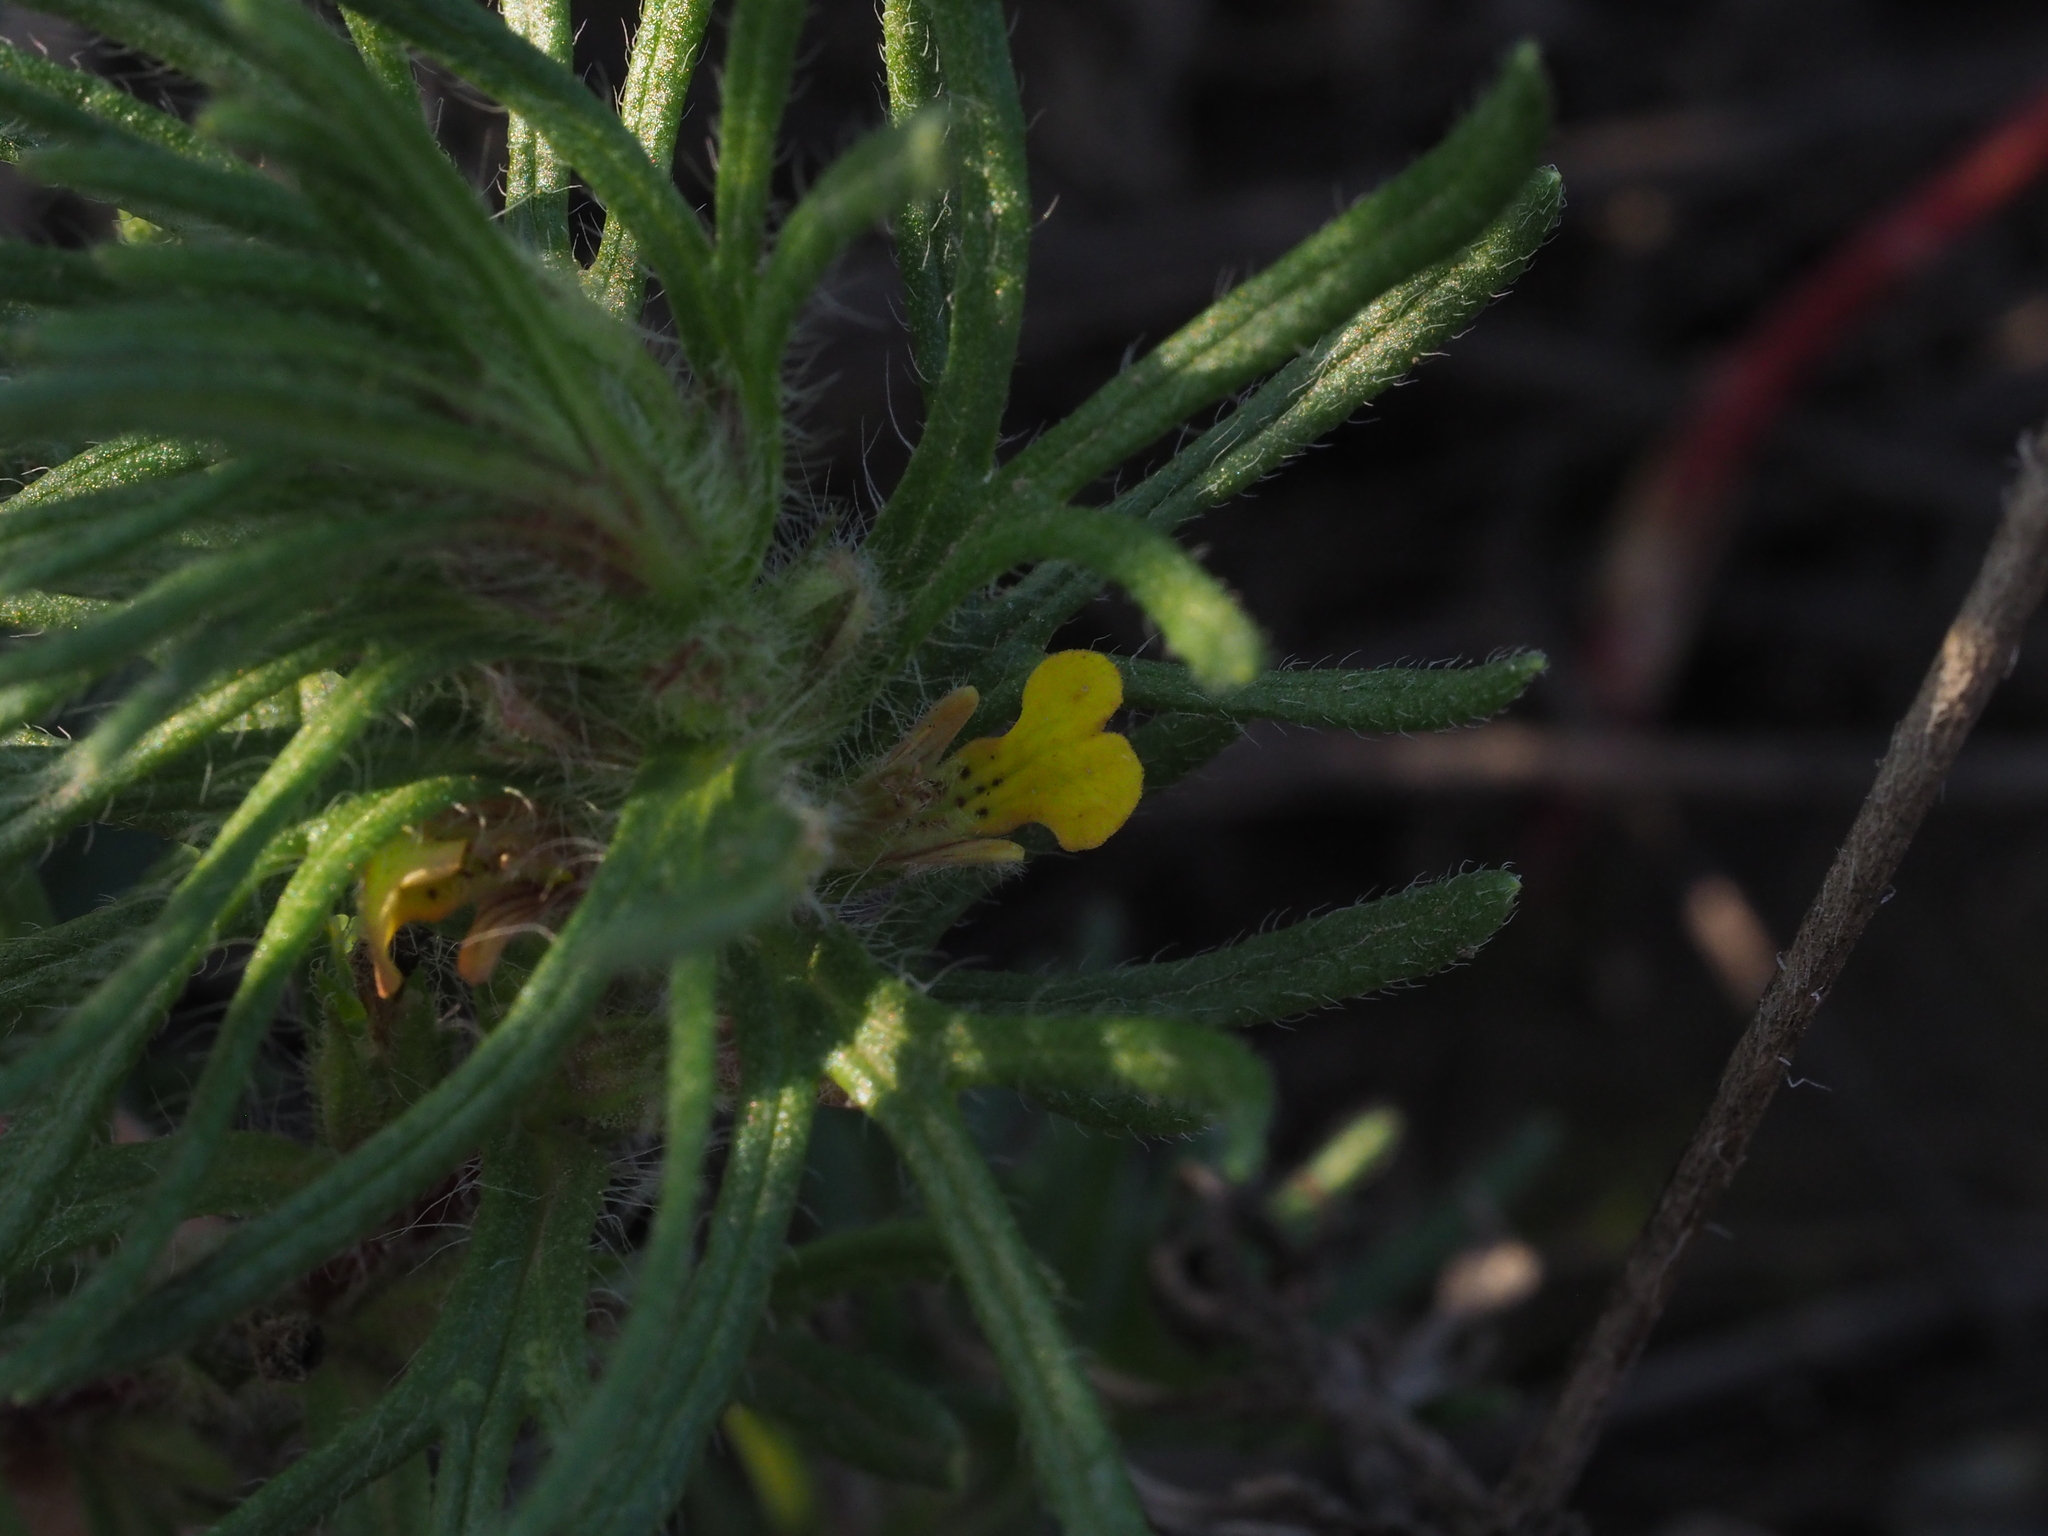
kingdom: Plantae
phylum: Tracheophyta
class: Magnoliopsida
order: Lamiales
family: Lamiaceae
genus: Ajuga
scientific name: Ajuga chamaepitys
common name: Ground-pine
